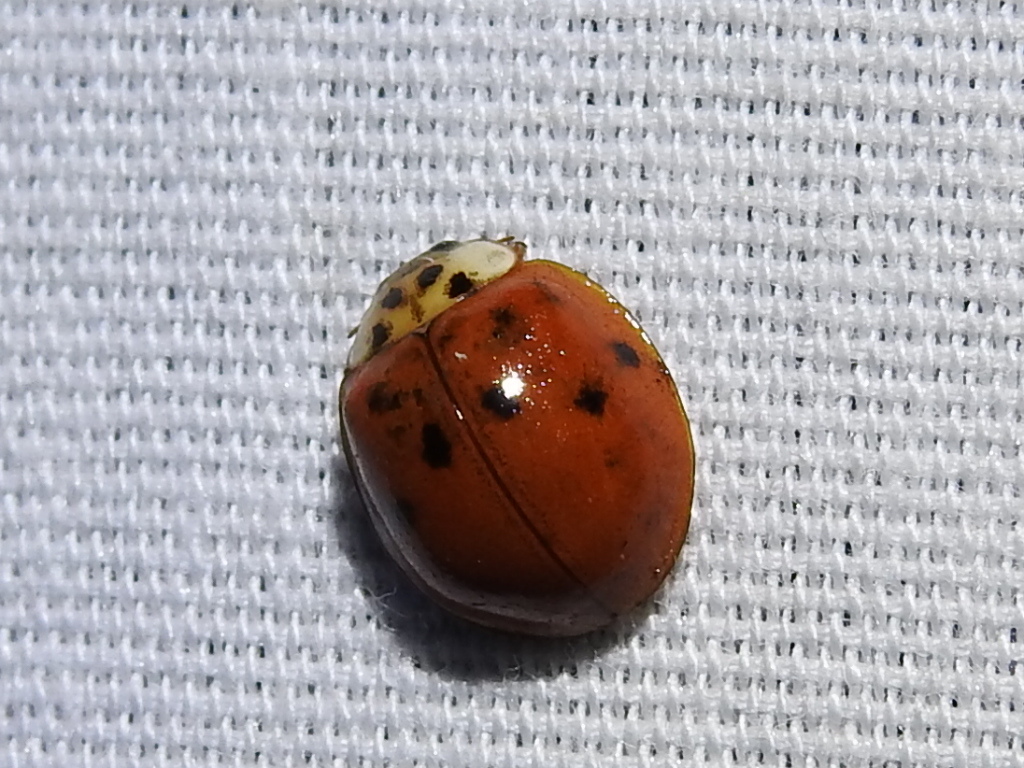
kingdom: Animalia
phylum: Arthropoda
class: Insecta
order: Coleoptera
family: Coccinellidae
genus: Harmonia
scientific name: Harmonia axyridis
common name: Harlequin ladybird
